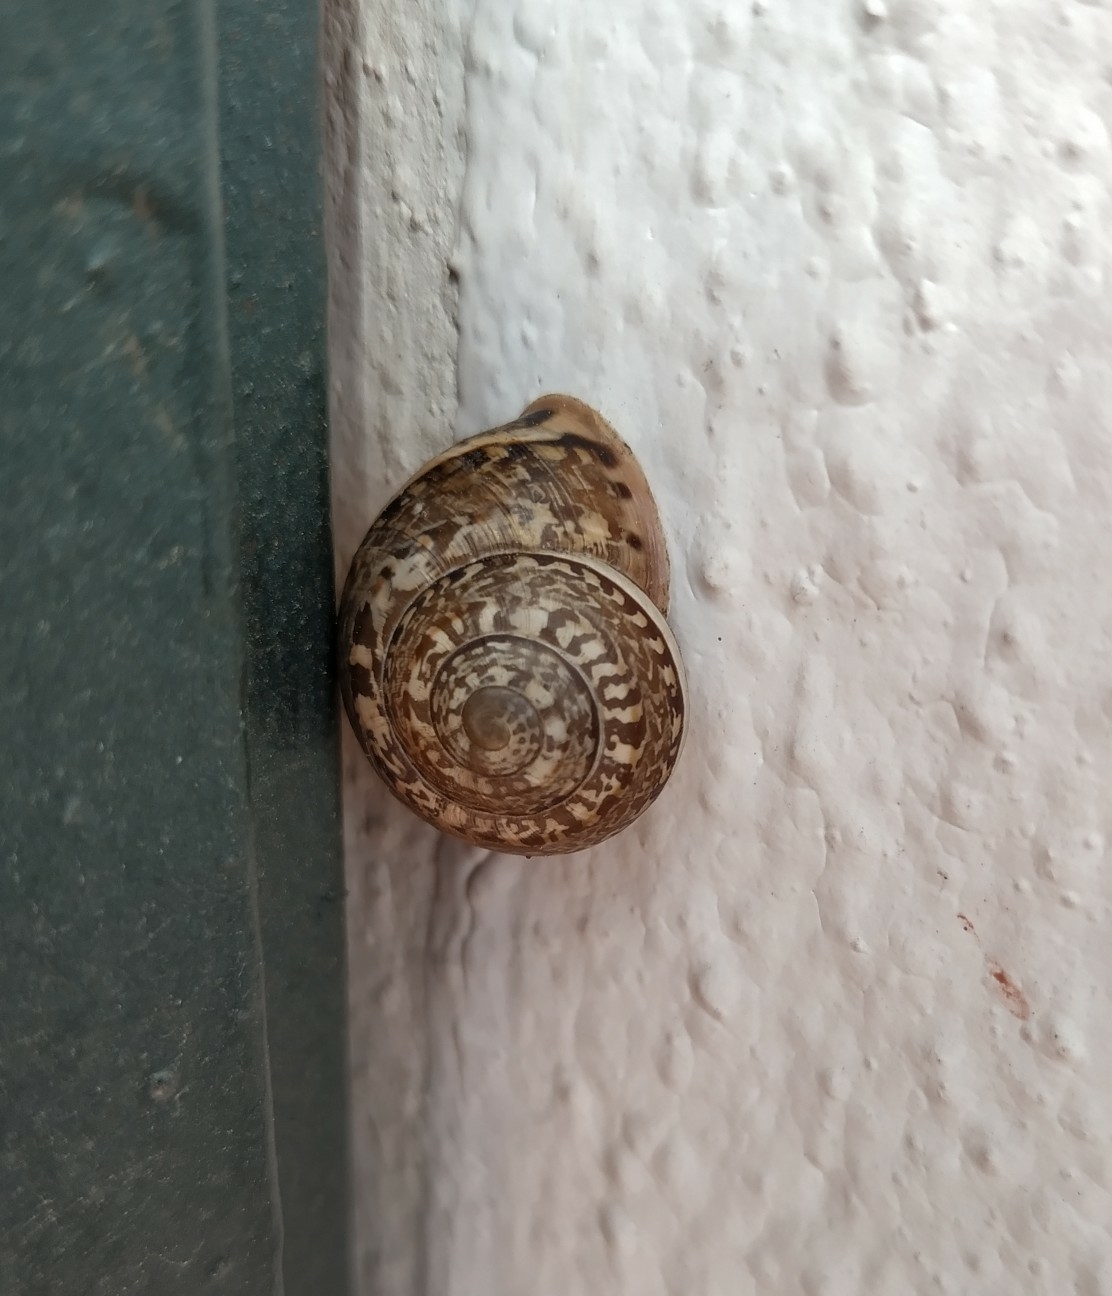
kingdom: Animalia
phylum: Mollusca
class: Gastropoda
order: Stylommatophora
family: Helicidae
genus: Iberus
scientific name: Iberus marmoratus
